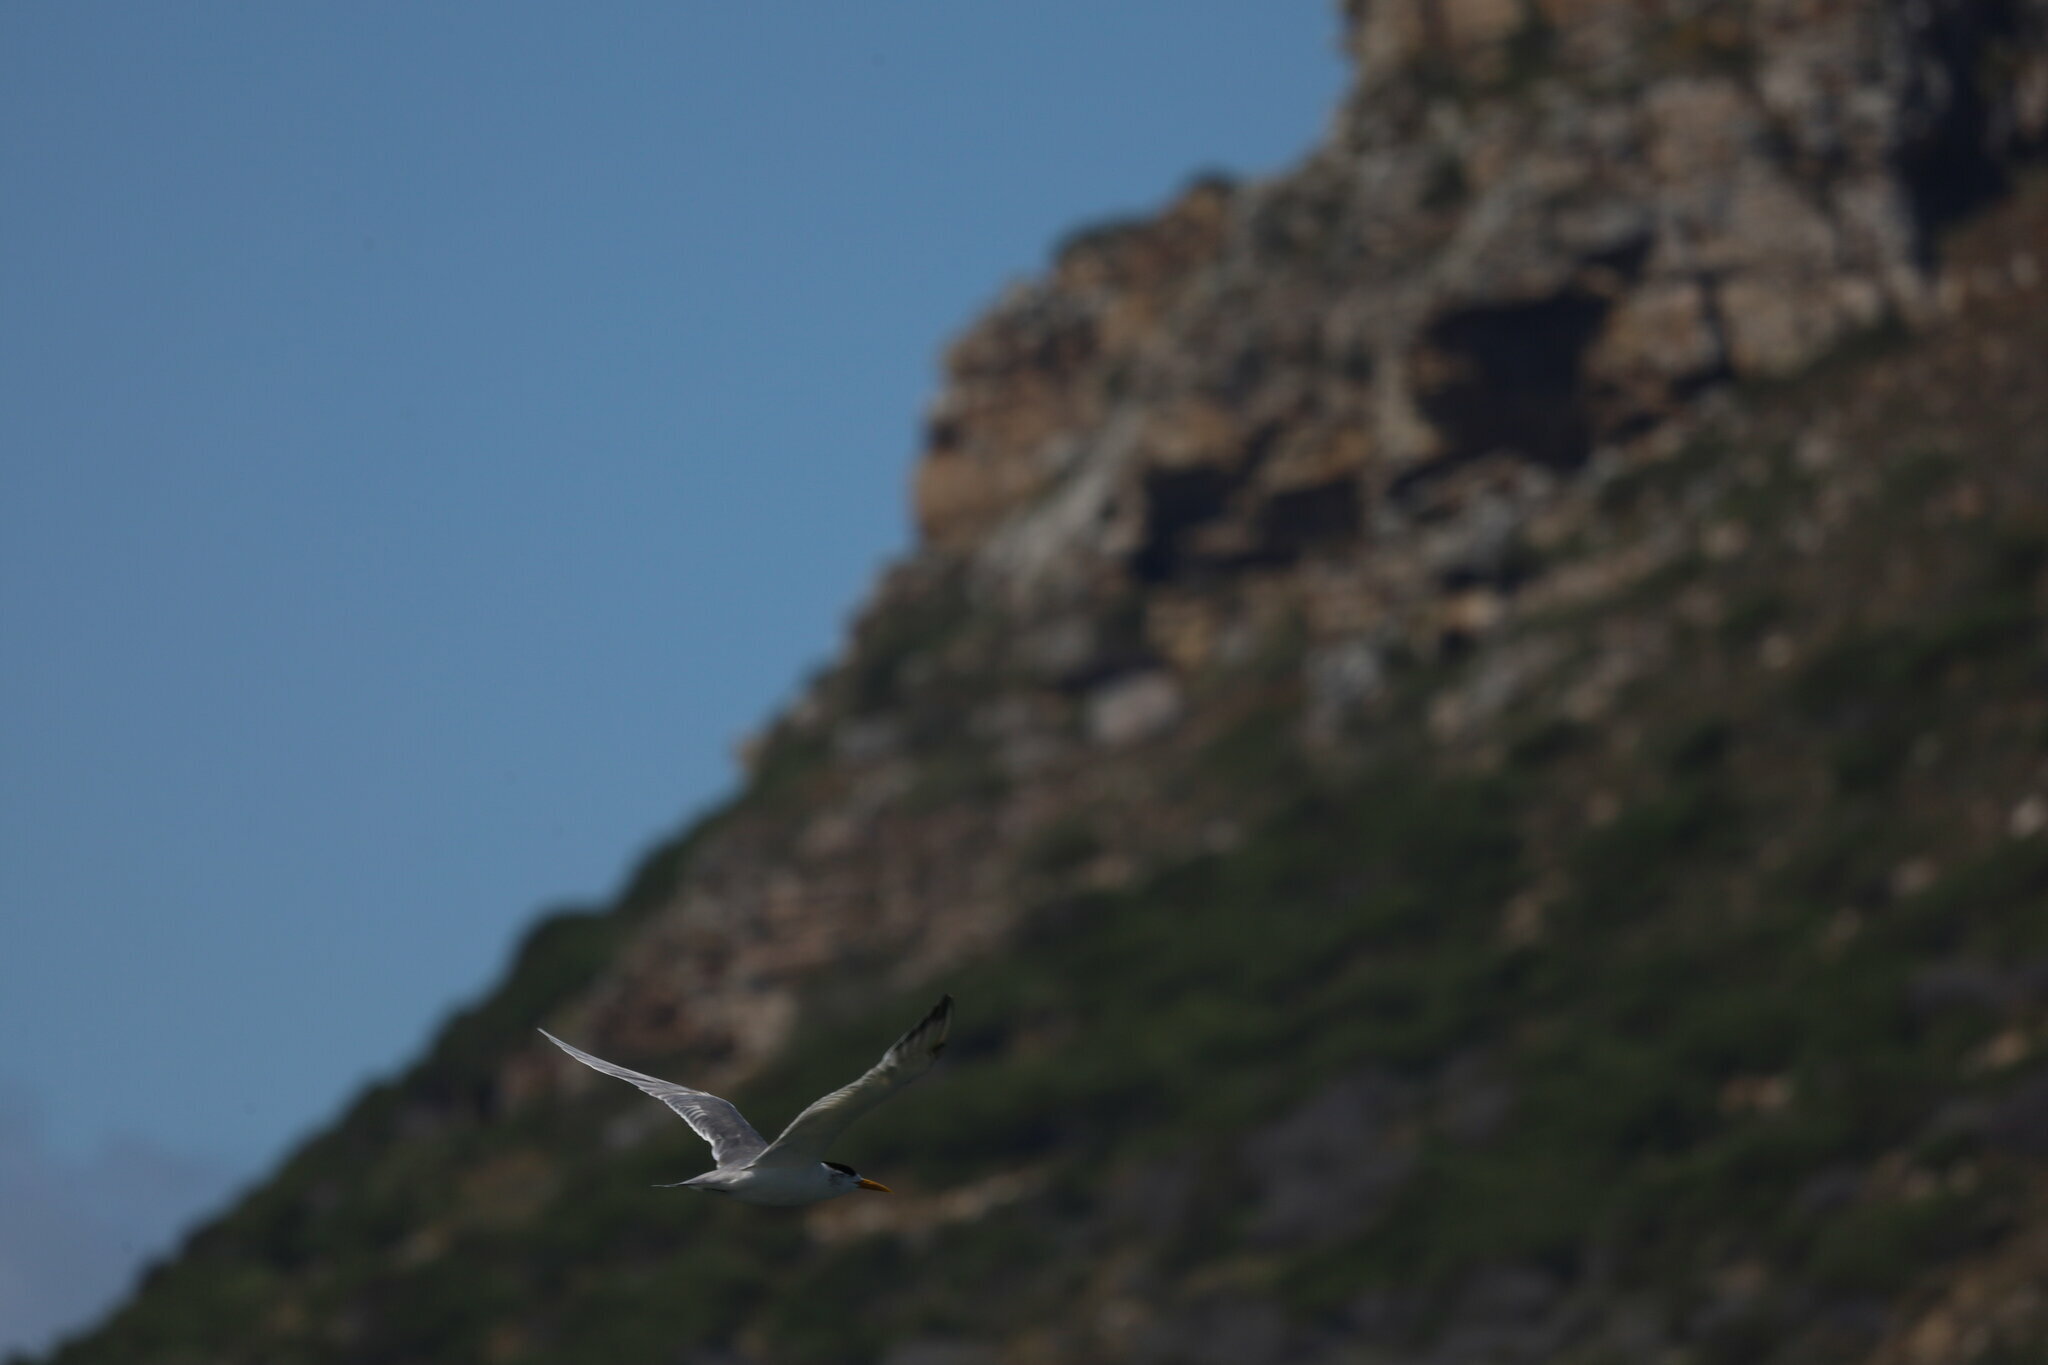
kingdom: Animalia
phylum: Chordata
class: Aves
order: Charadriiformes
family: Laridae
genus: Thalasseus
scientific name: Thalasseus bergii
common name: Greater crested tern
